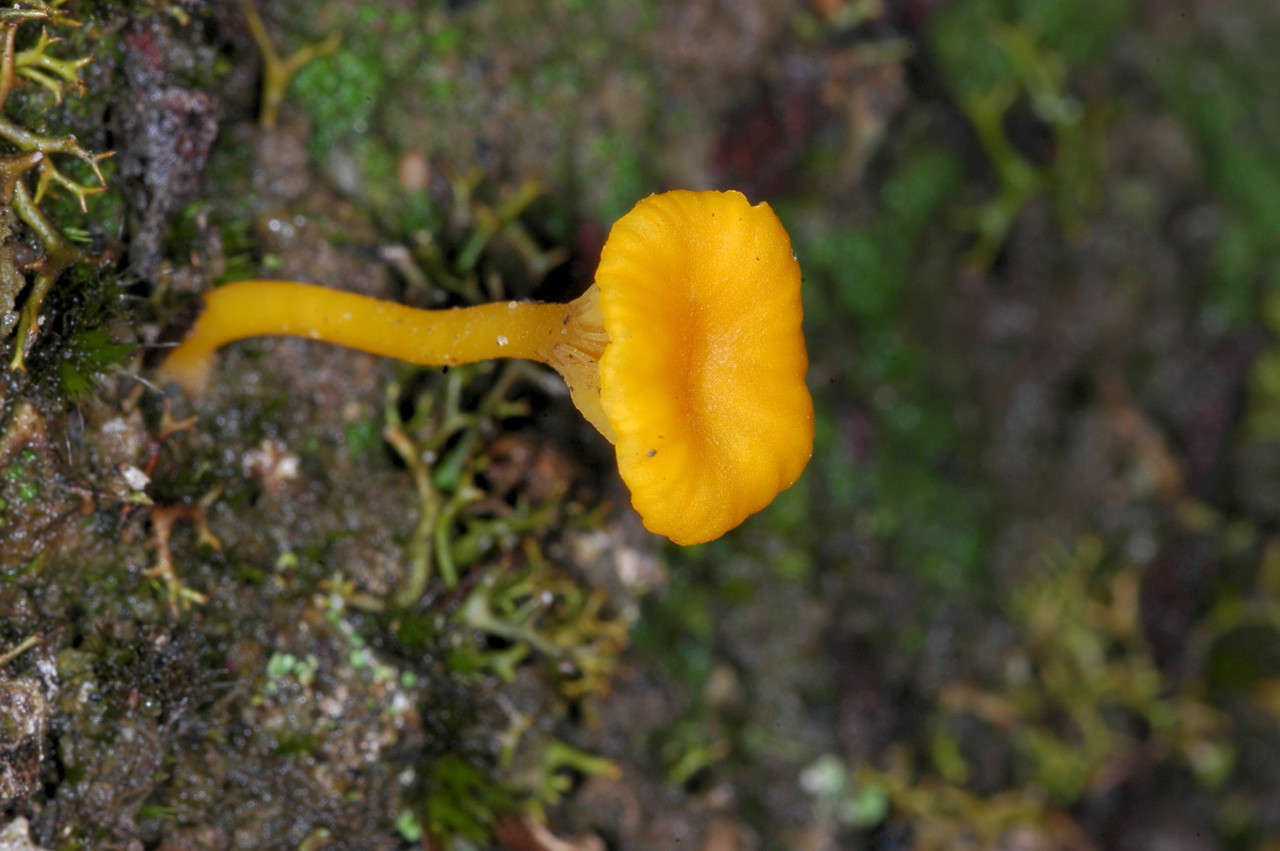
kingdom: Fungi
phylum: Basidiomycota
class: Agaricomycetes
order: Agaricales
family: Hygrophoraceae
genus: Lichenomphalia
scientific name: Lichenomphalia chromacea
